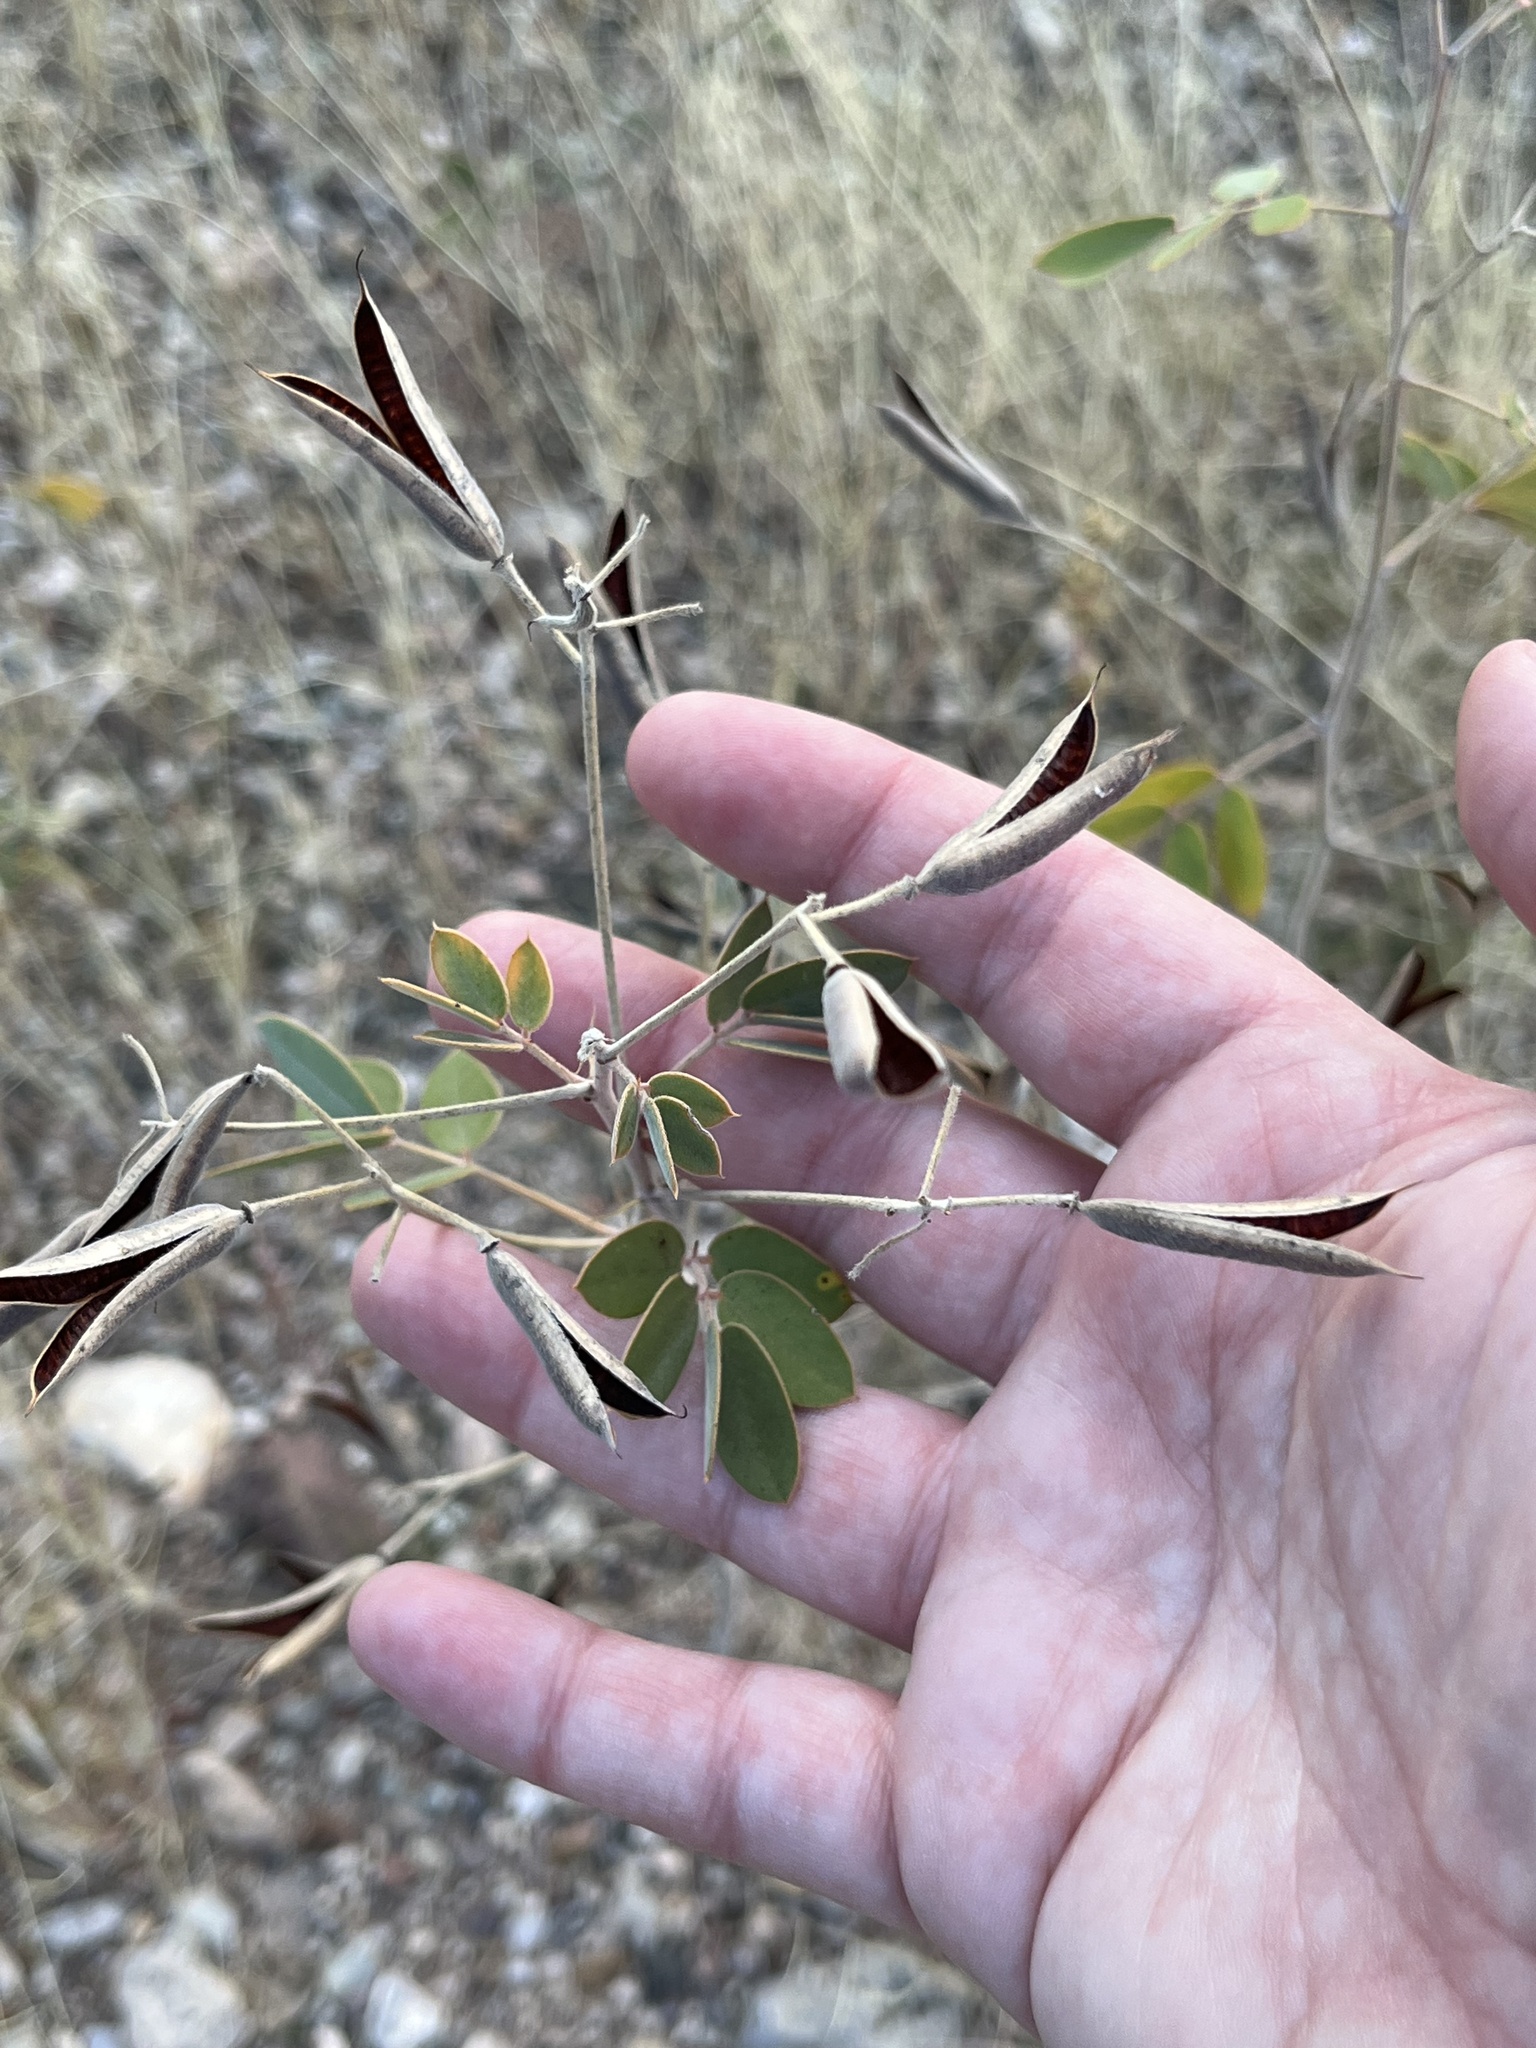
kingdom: Plantae
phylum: Tracheophyta
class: Magnoliopsida
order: Fabales
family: Fabaceae
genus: Senna
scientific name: Senna covesii
